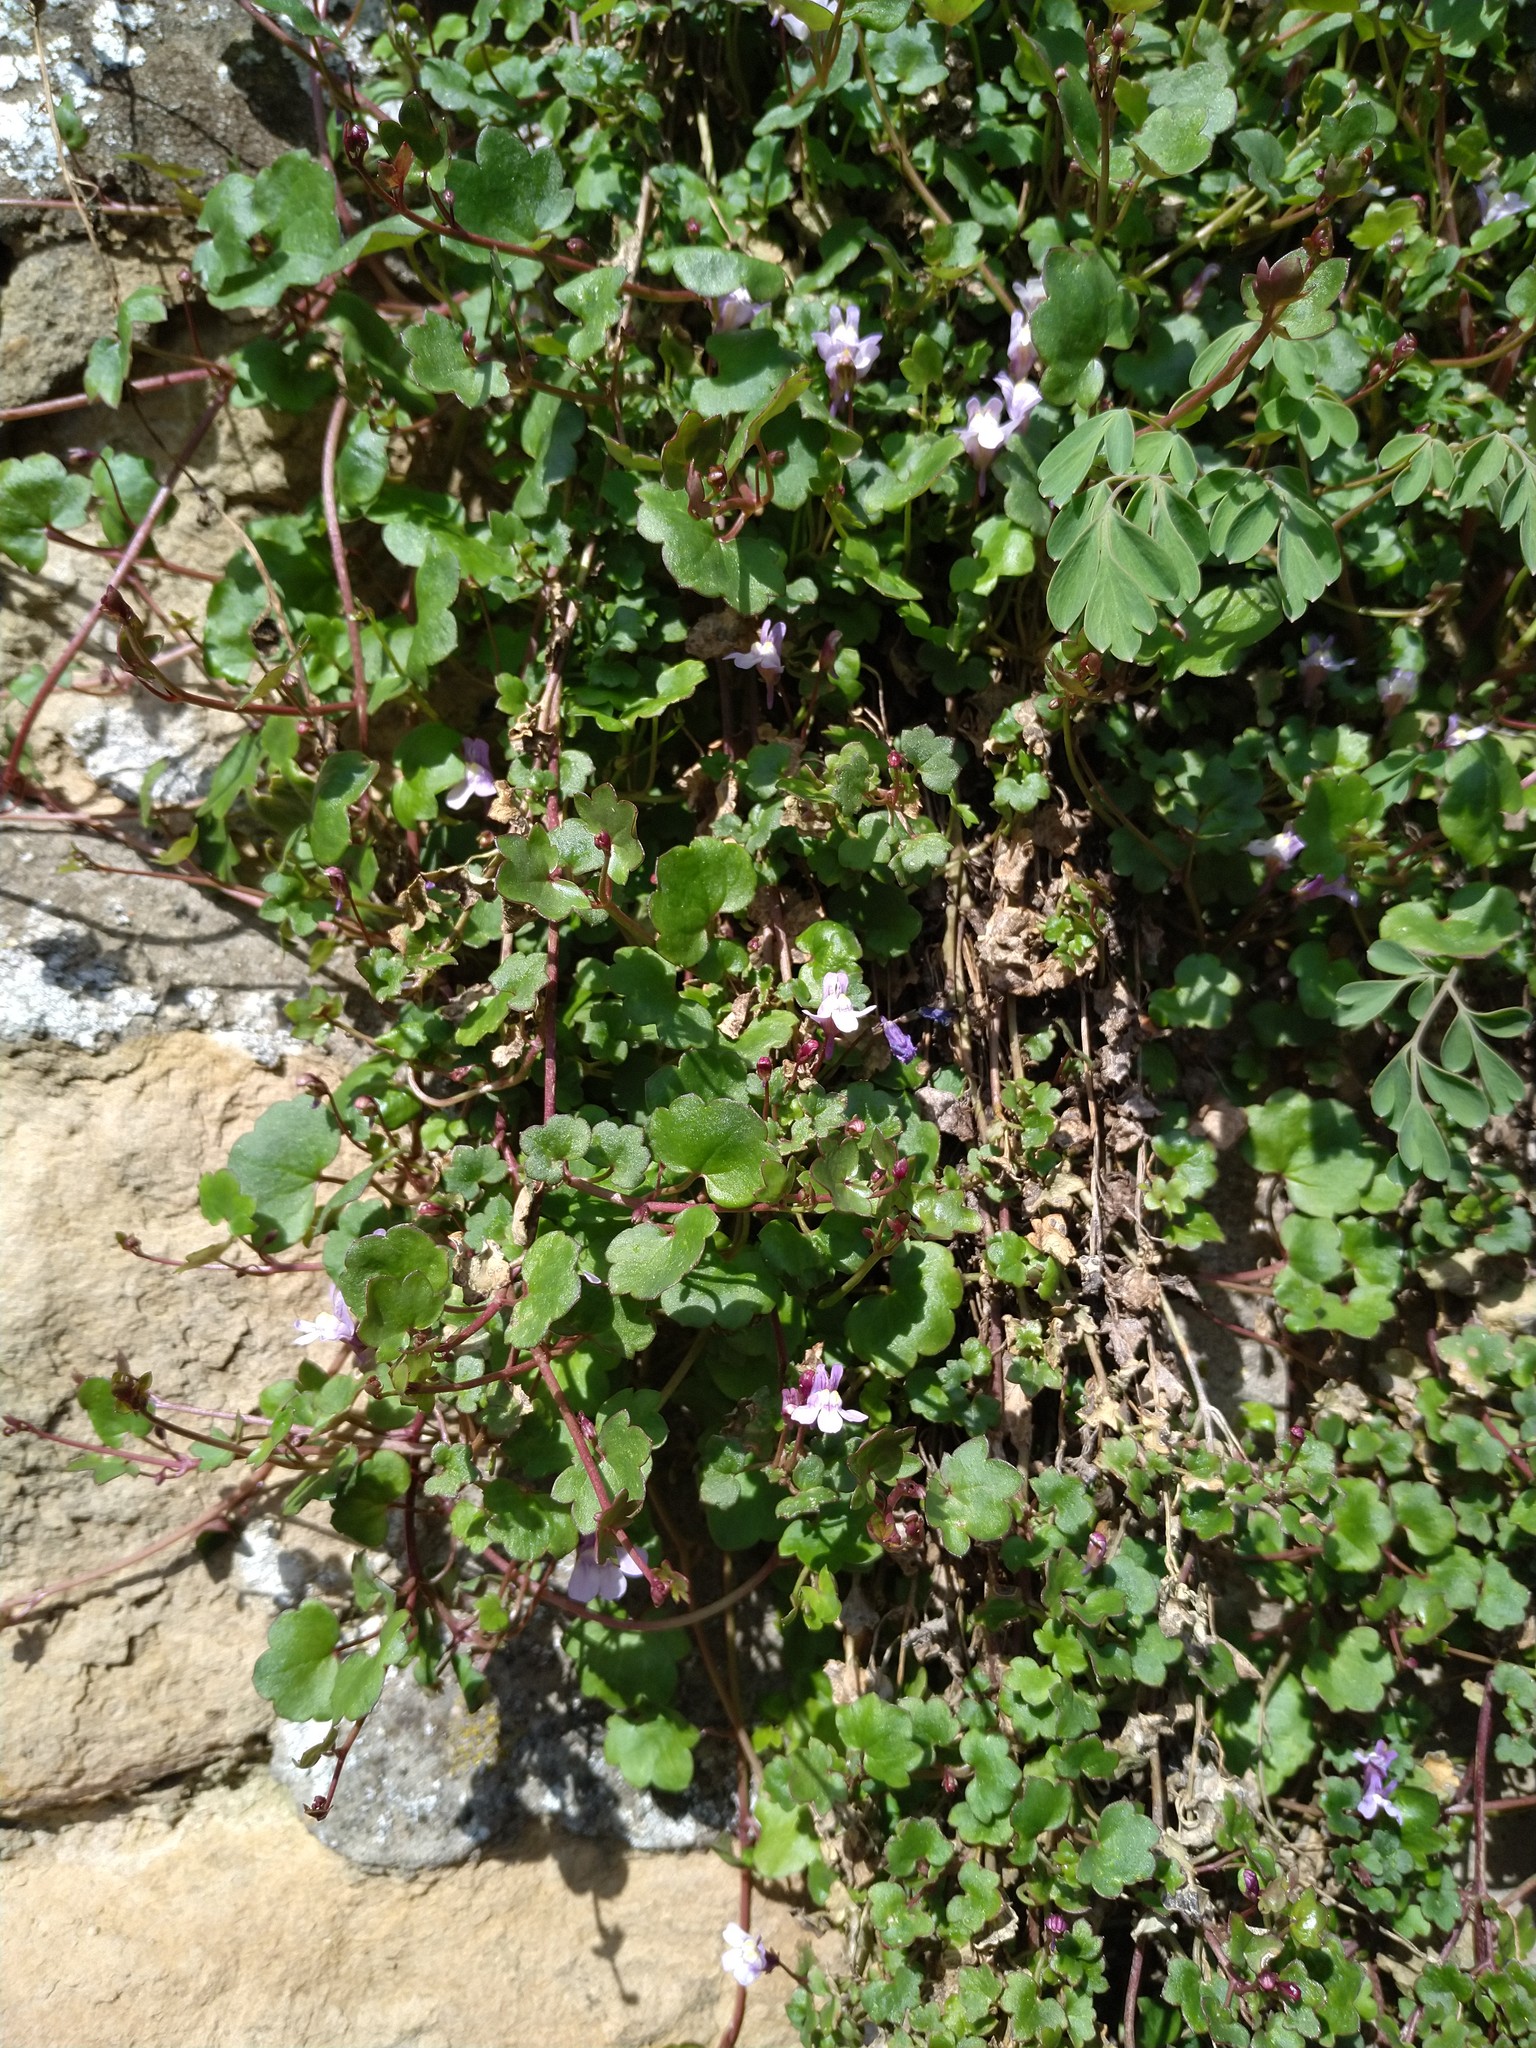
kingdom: Plantae
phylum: Tracheophyta
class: Magnoliopsida
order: Lamiales
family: Plantaginaceae
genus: Cymbalaria
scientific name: Cymbalaria muralis
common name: Ivy-leaved toadflax
